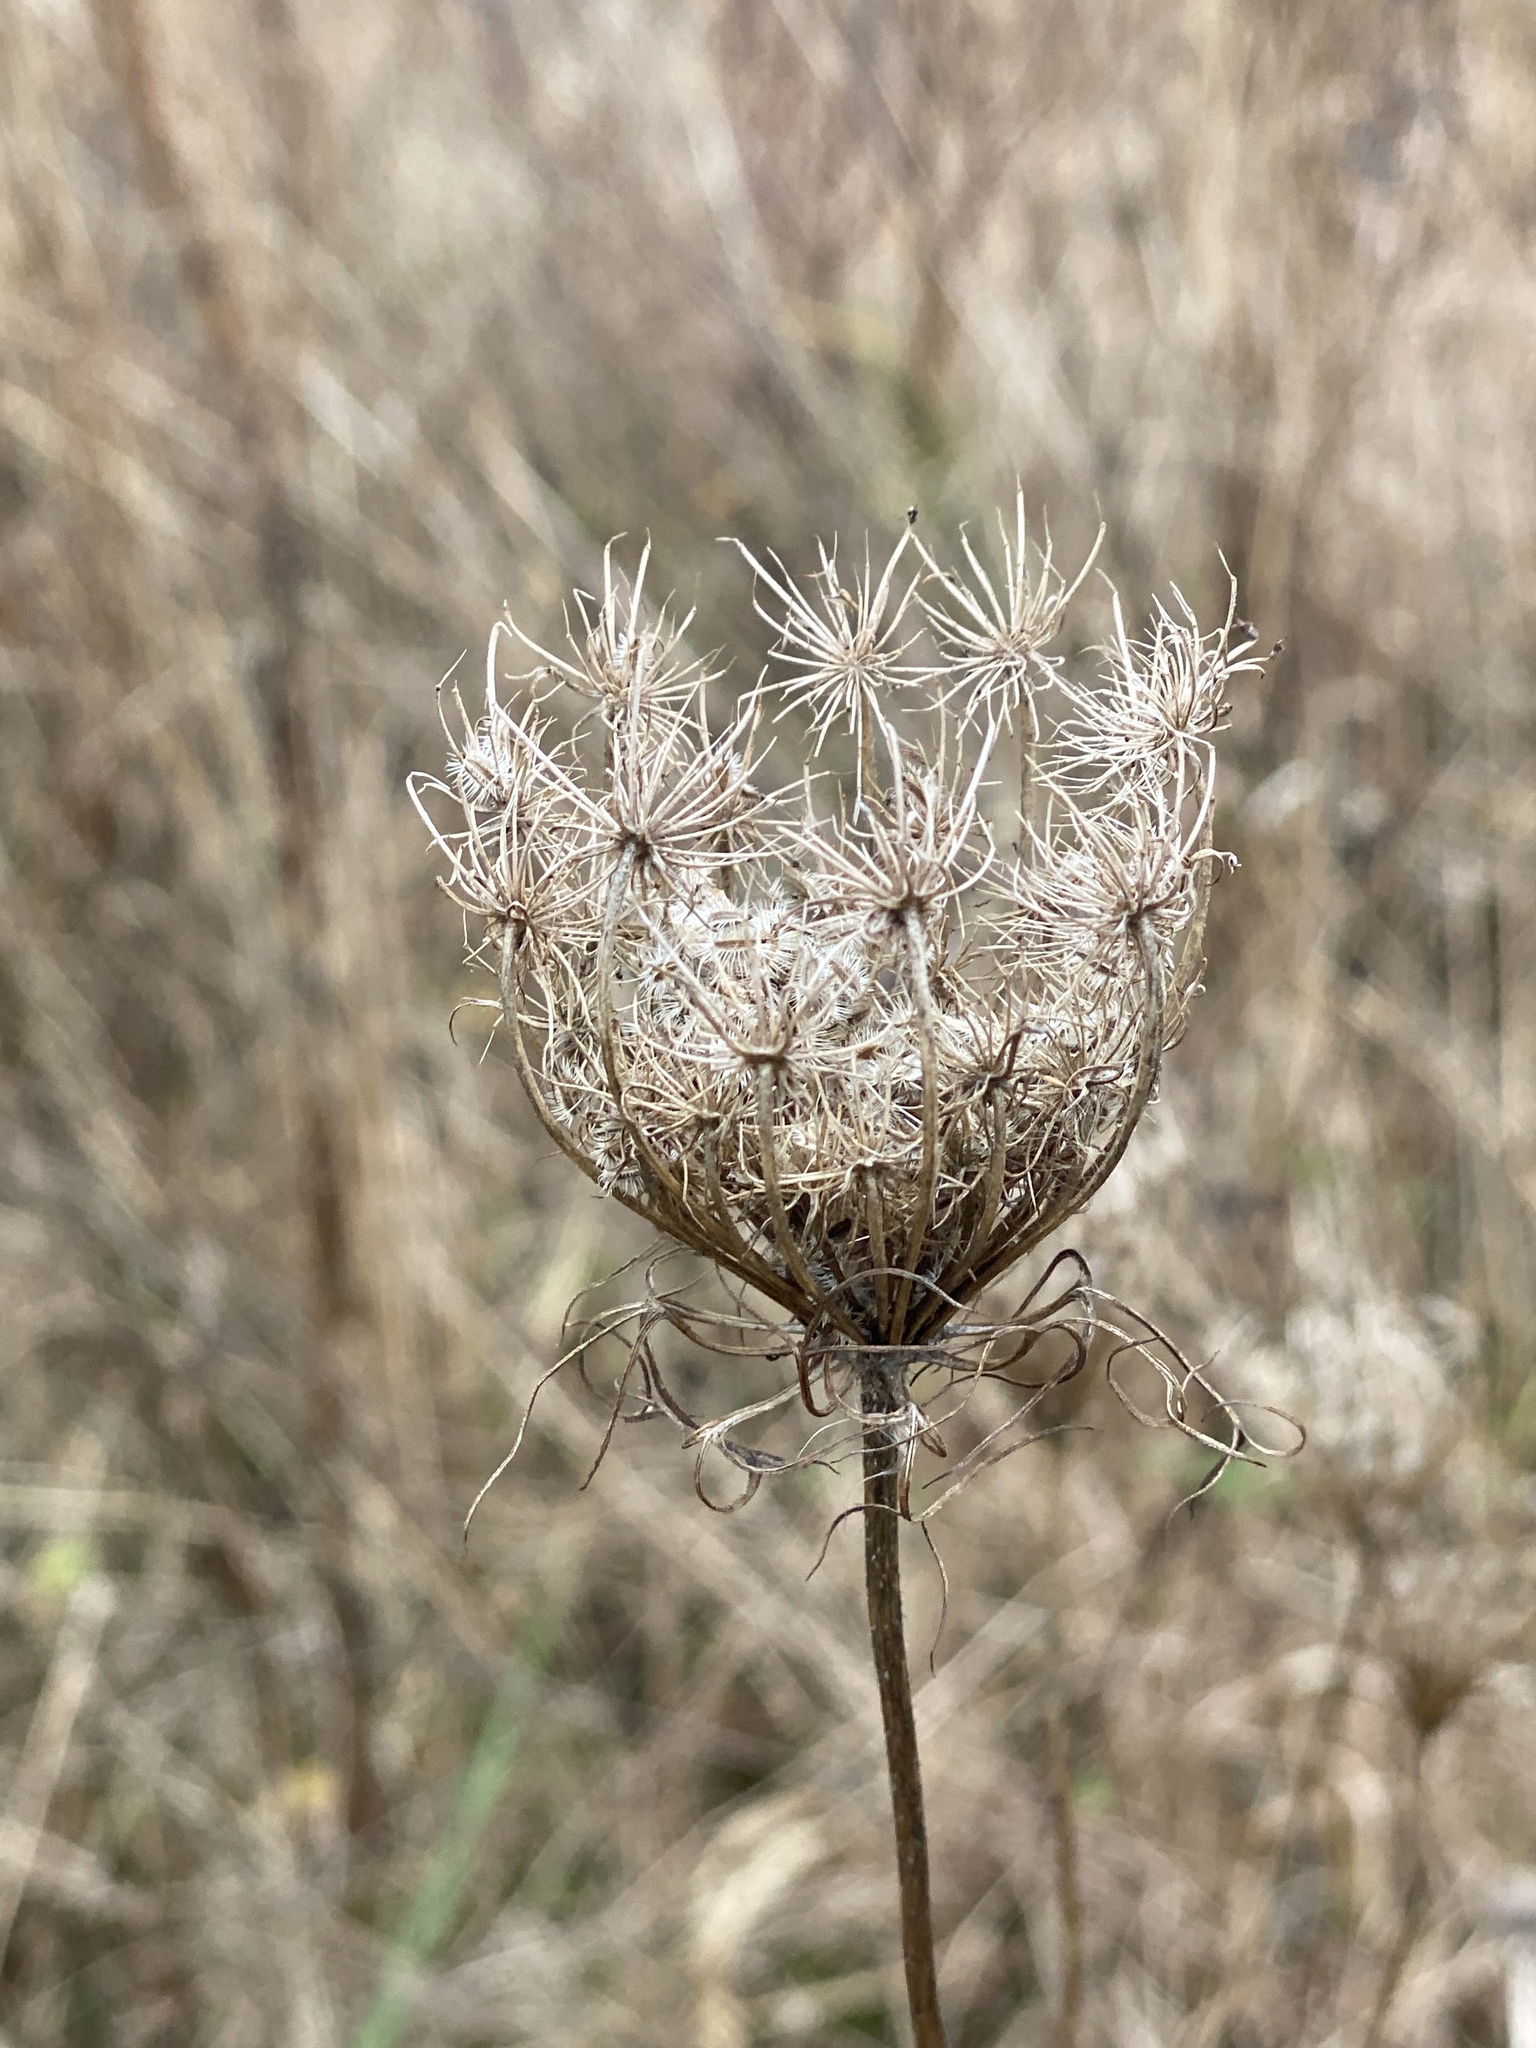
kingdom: Plantae
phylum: Tracheophyta
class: Magnoliopsida
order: Apiales
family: Apiaceae
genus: Daucus
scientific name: Daucus carota
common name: Wild carrot
